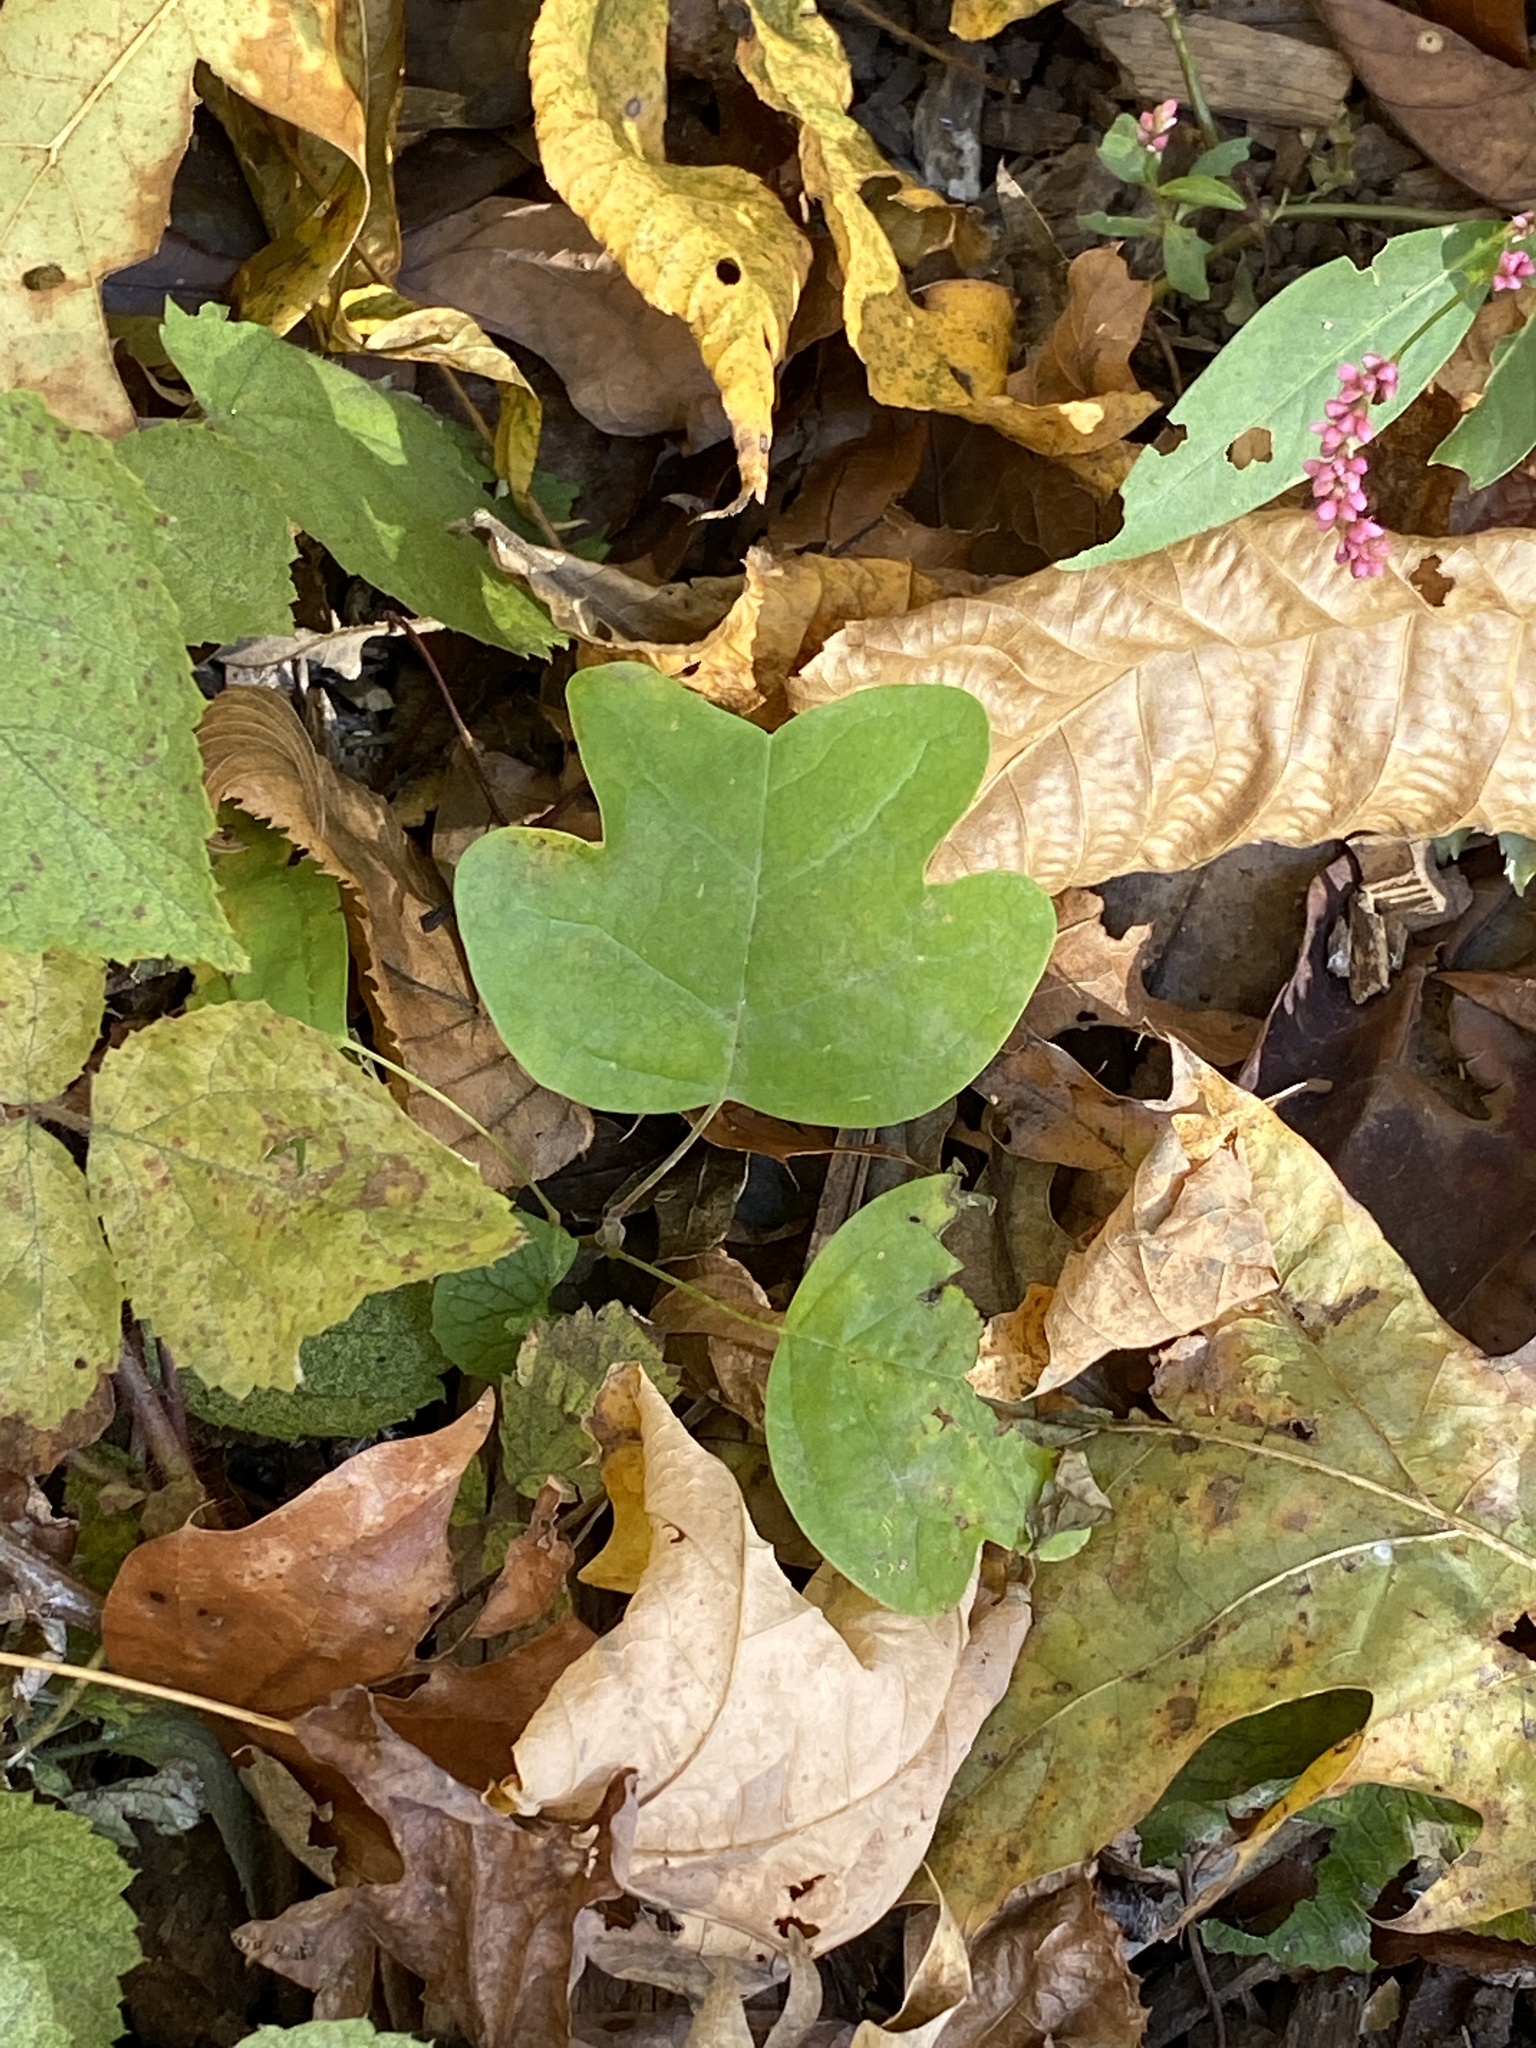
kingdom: Plantae
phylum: Tracheophyta
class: Magnoliopsida
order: Magnoliales
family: Magnoliaceae
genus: Liriodendron
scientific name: Liriodendron tulipifera
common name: Tulip tree
